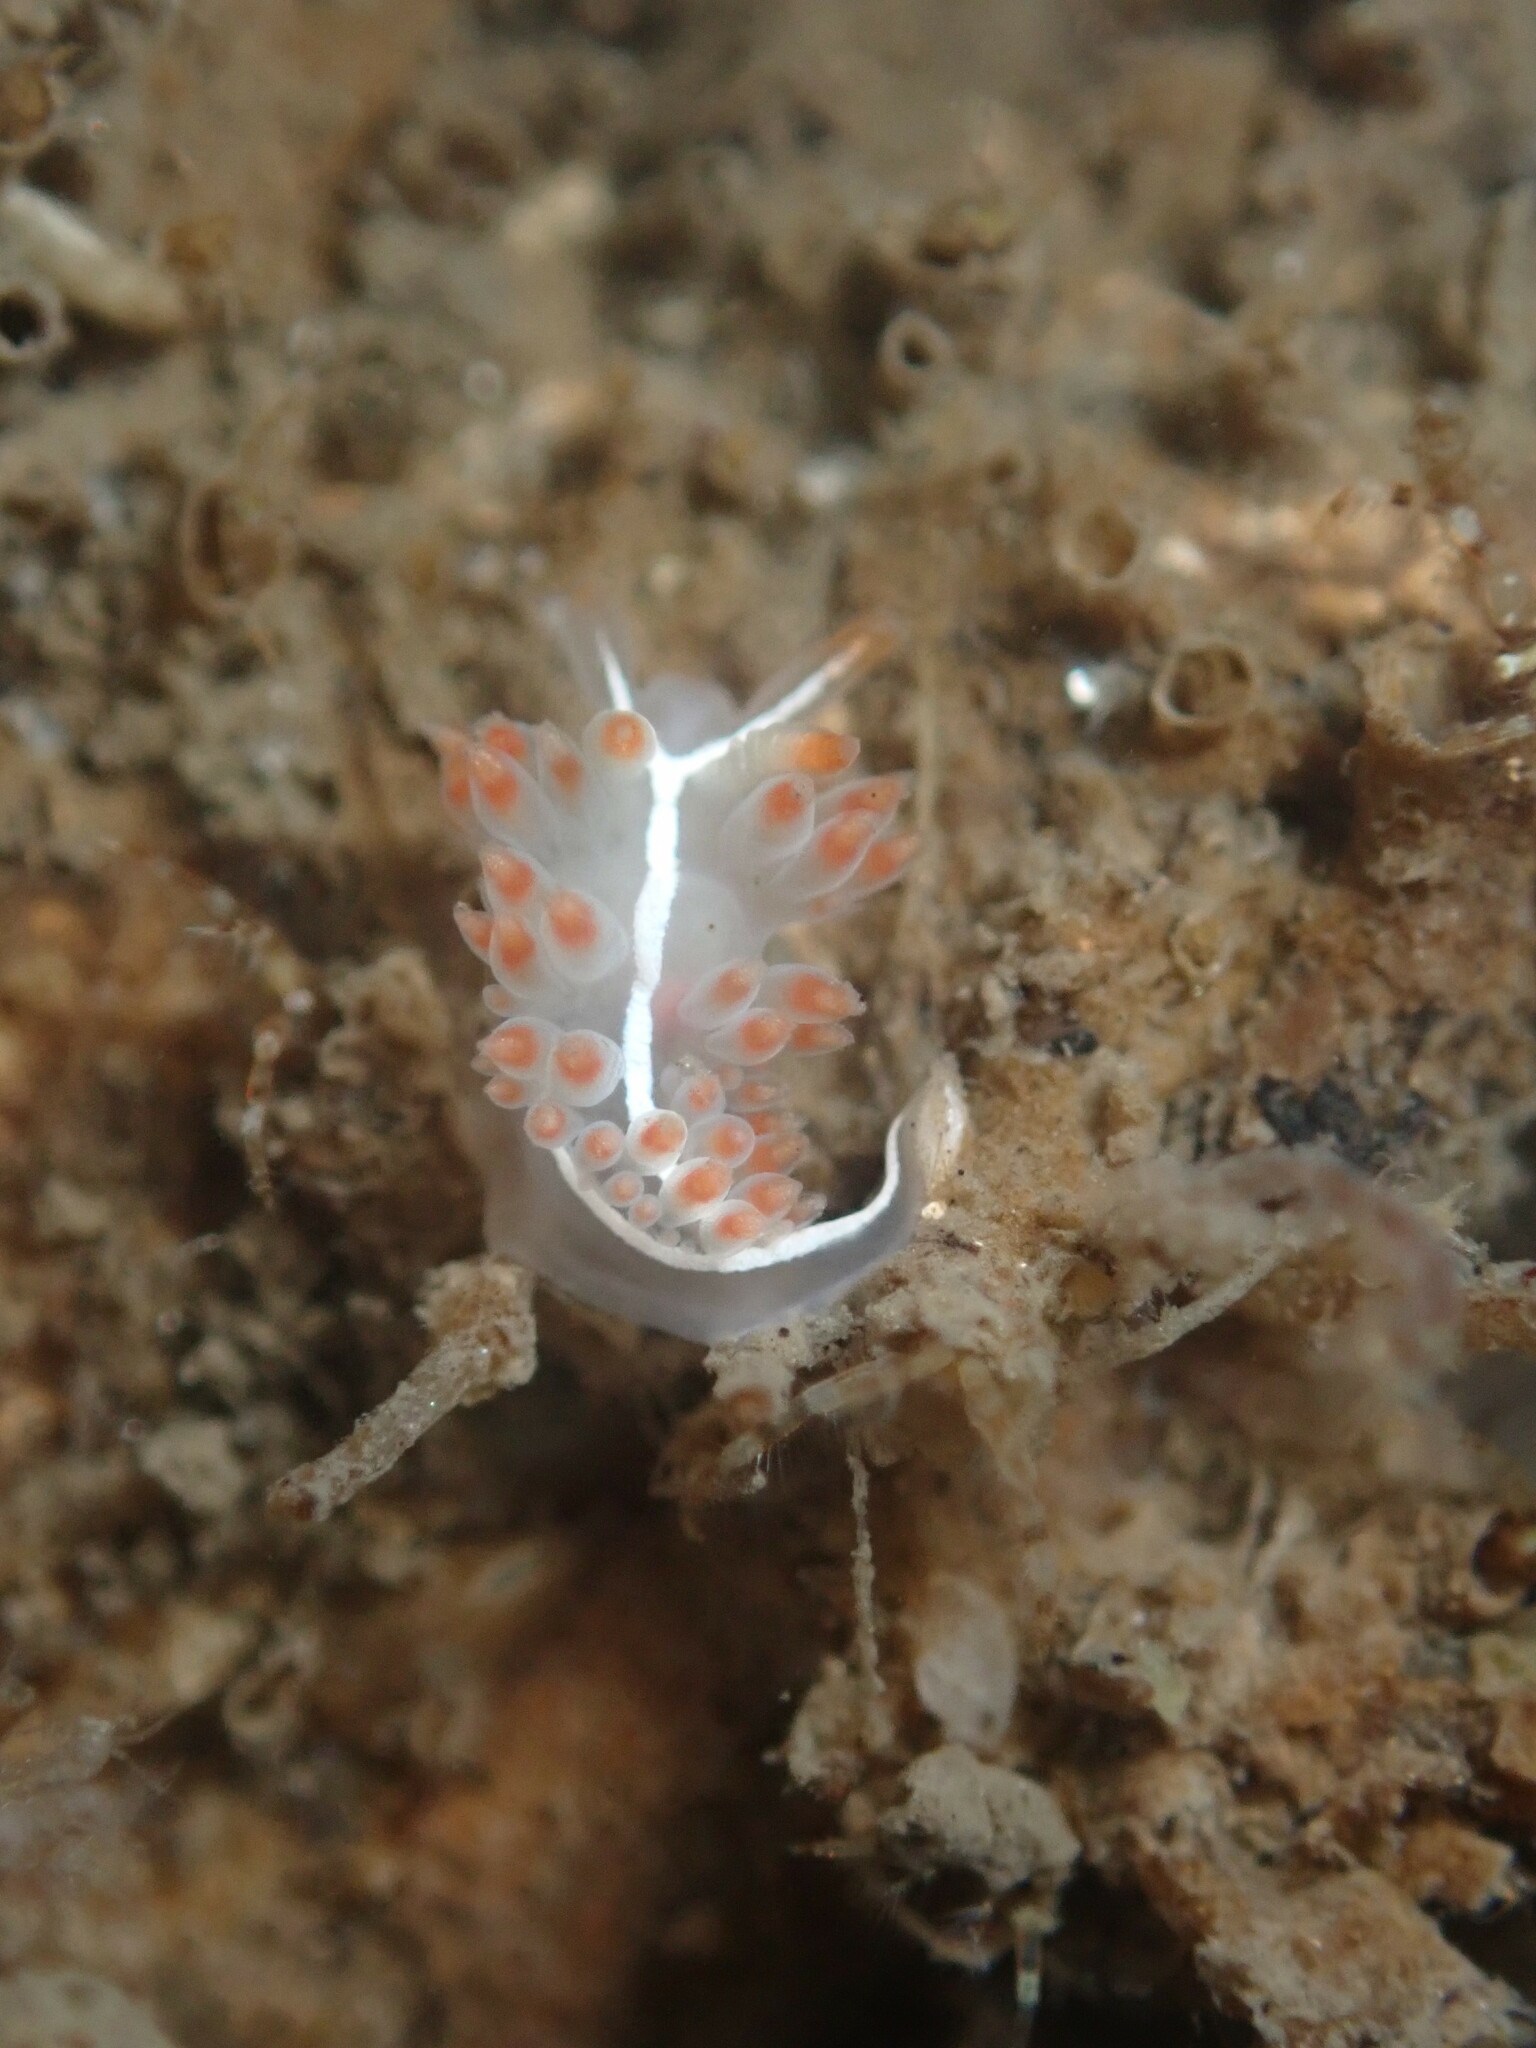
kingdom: Animalia
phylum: Mollusca
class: Gastropoda
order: Nudibranchia
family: Coryphellidae
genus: Coryphella
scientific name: Coryphella trilineata
